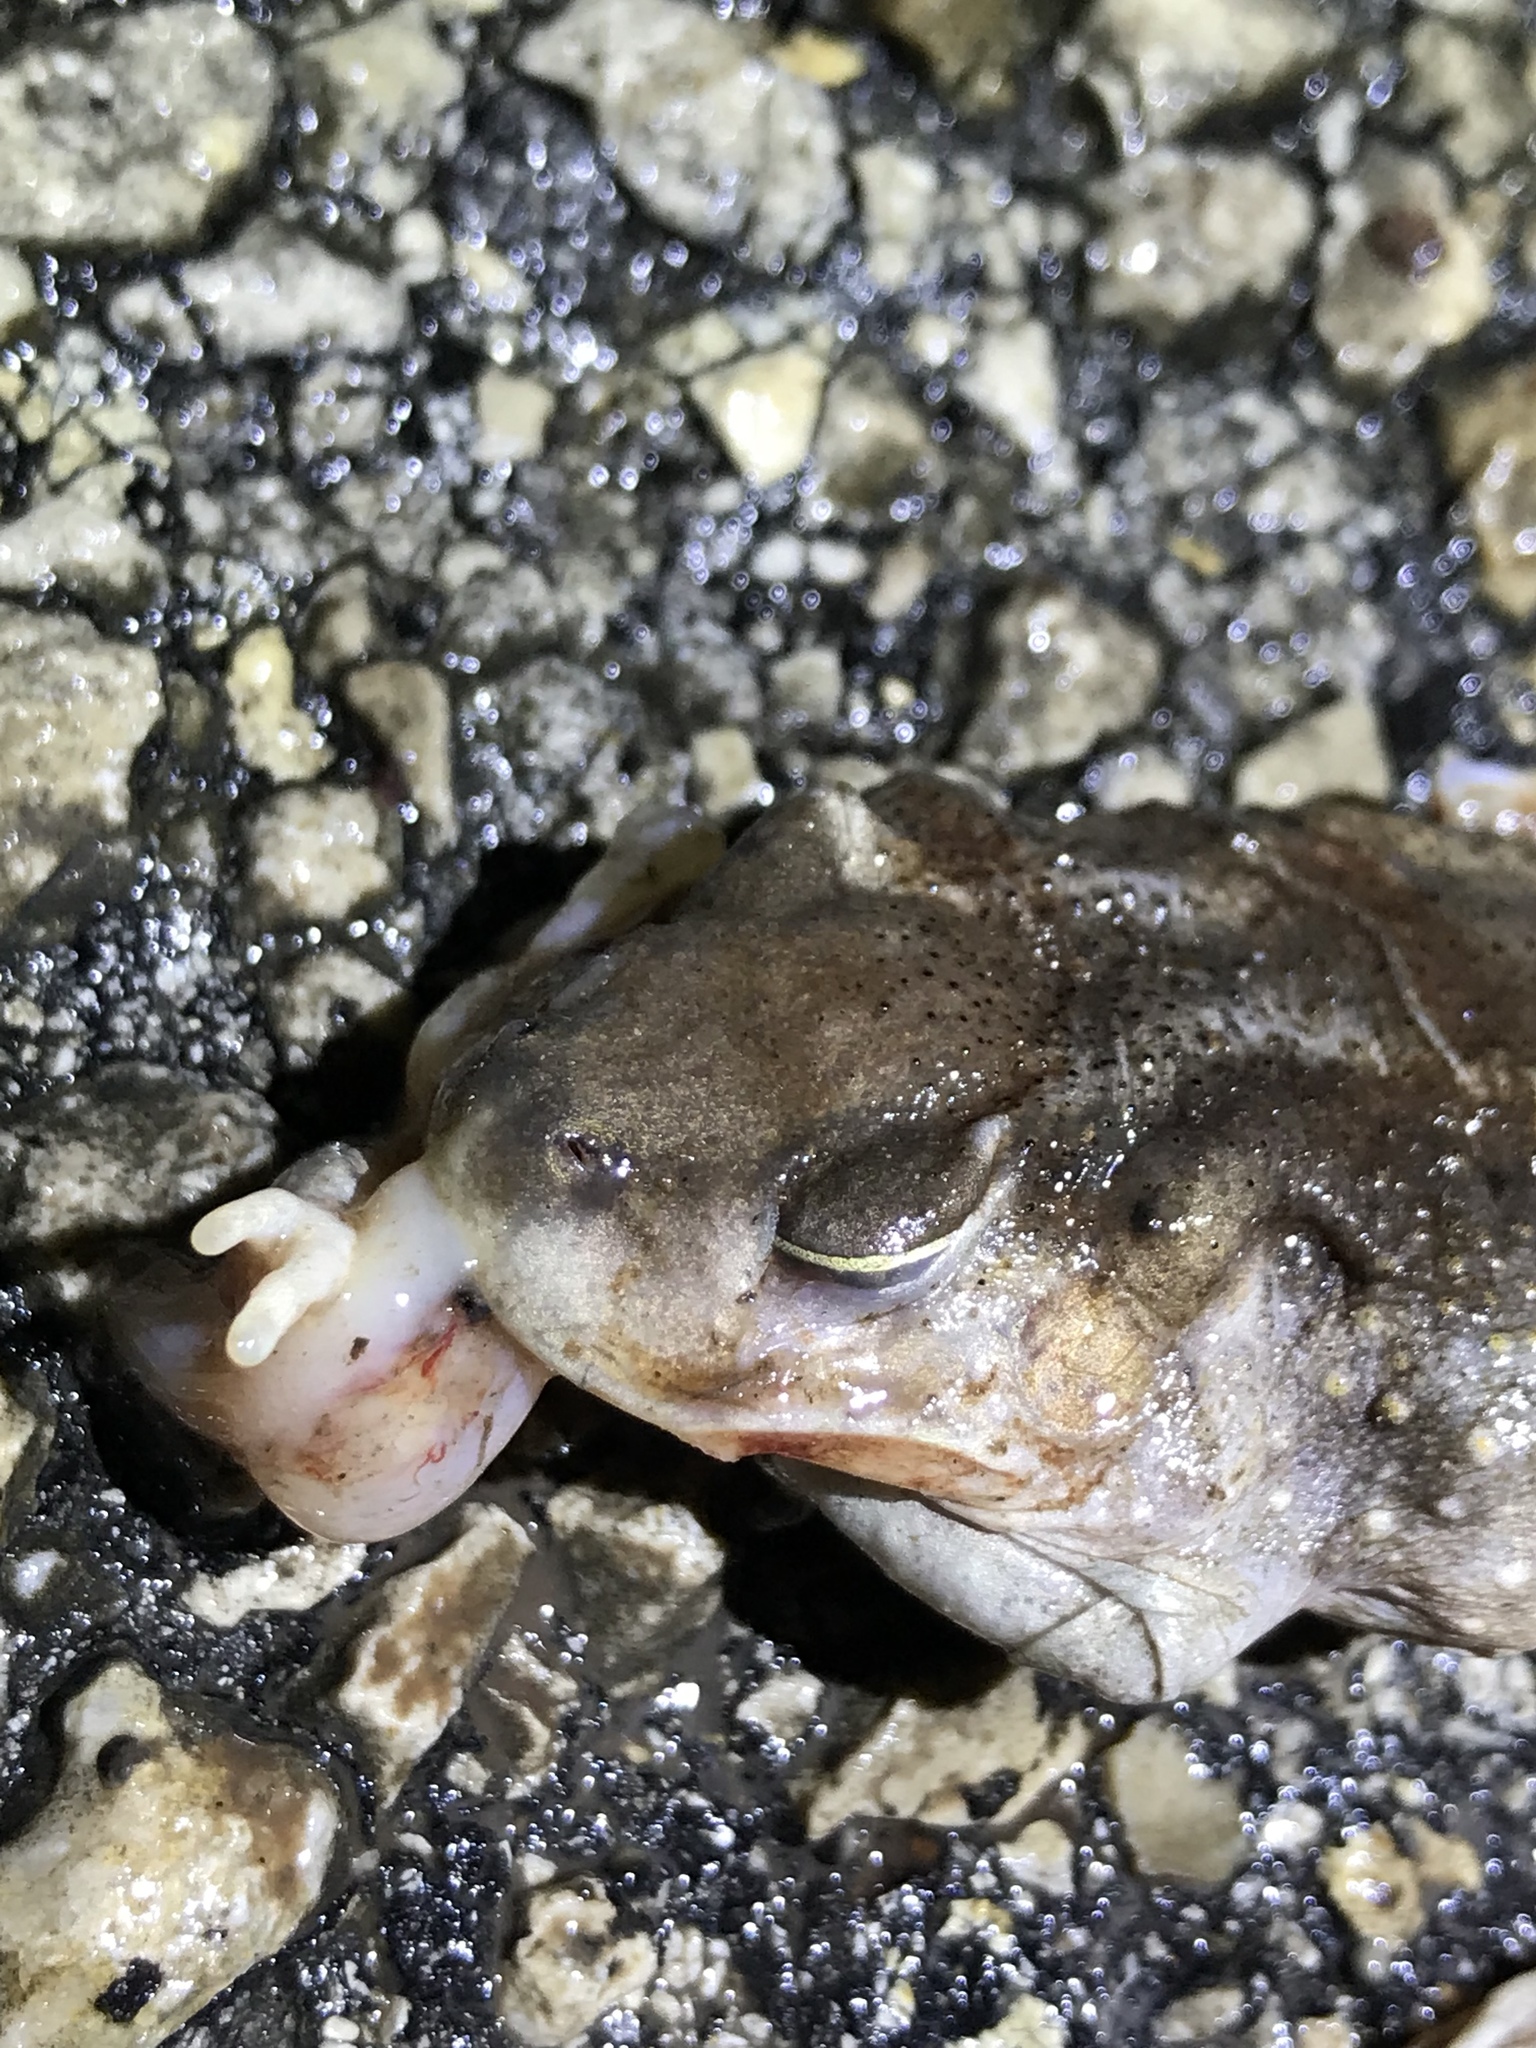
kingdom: Animalia
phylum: Chordata
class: Amphibia
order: Anura
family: Scaphiopodidae
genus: Scaphiopus
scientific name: Scaphiopus hurterii
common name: Hurter's spadefoot toad
